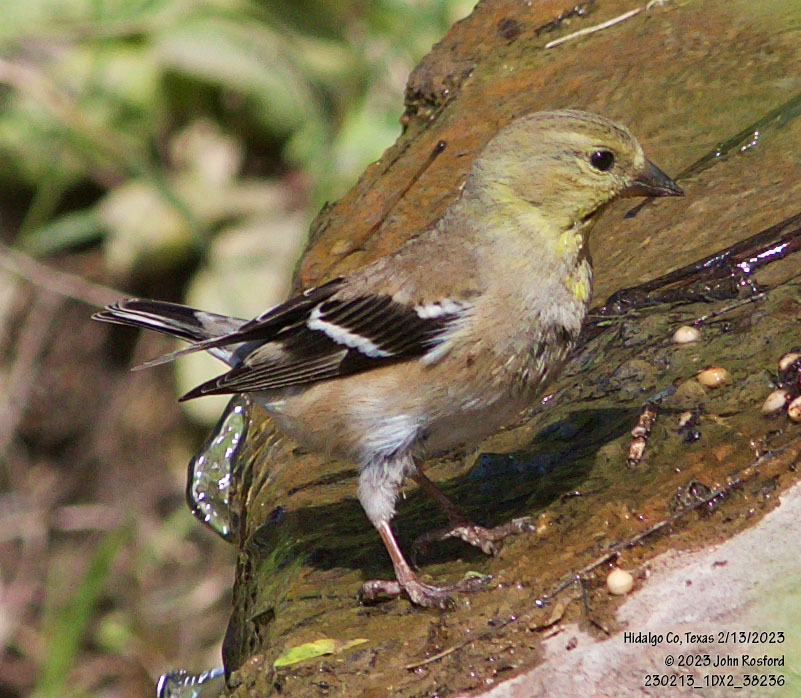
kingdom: Animalia
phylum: Chordata
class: Aves
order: Passeriformes
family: Fringillidae
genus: Spinus
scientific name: Spinus tristis
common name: American goldfinch
